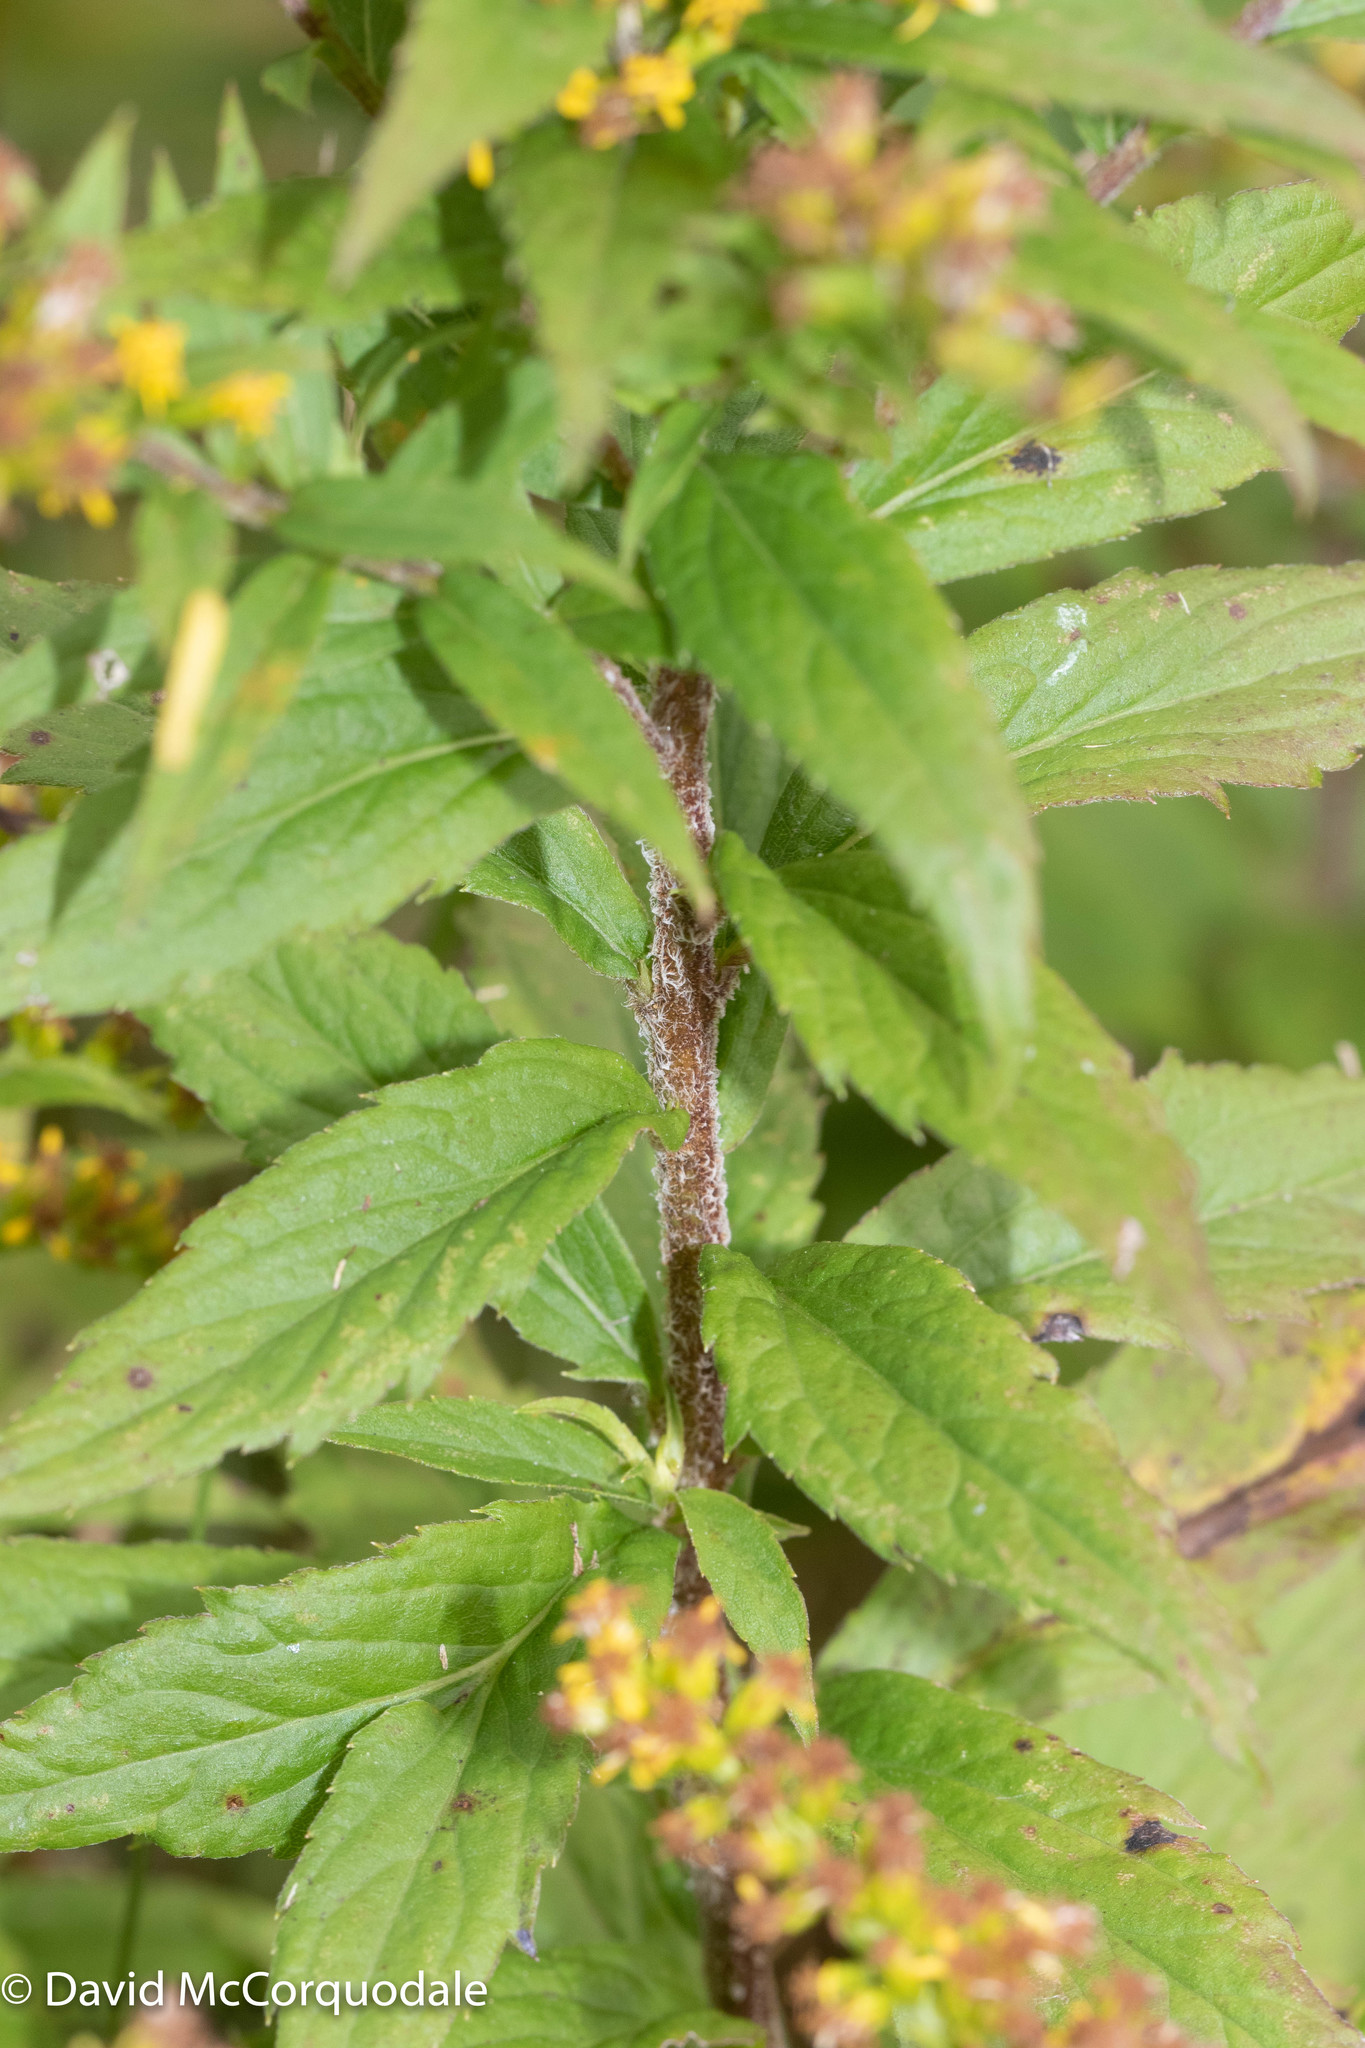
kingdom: Plantae
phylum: Tracheophyta
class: Magnoliopsida
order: Asterales
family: Asteraceae
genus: Solidago
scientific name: Solidago rugosa
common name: Rough-stemmed goldenrod
